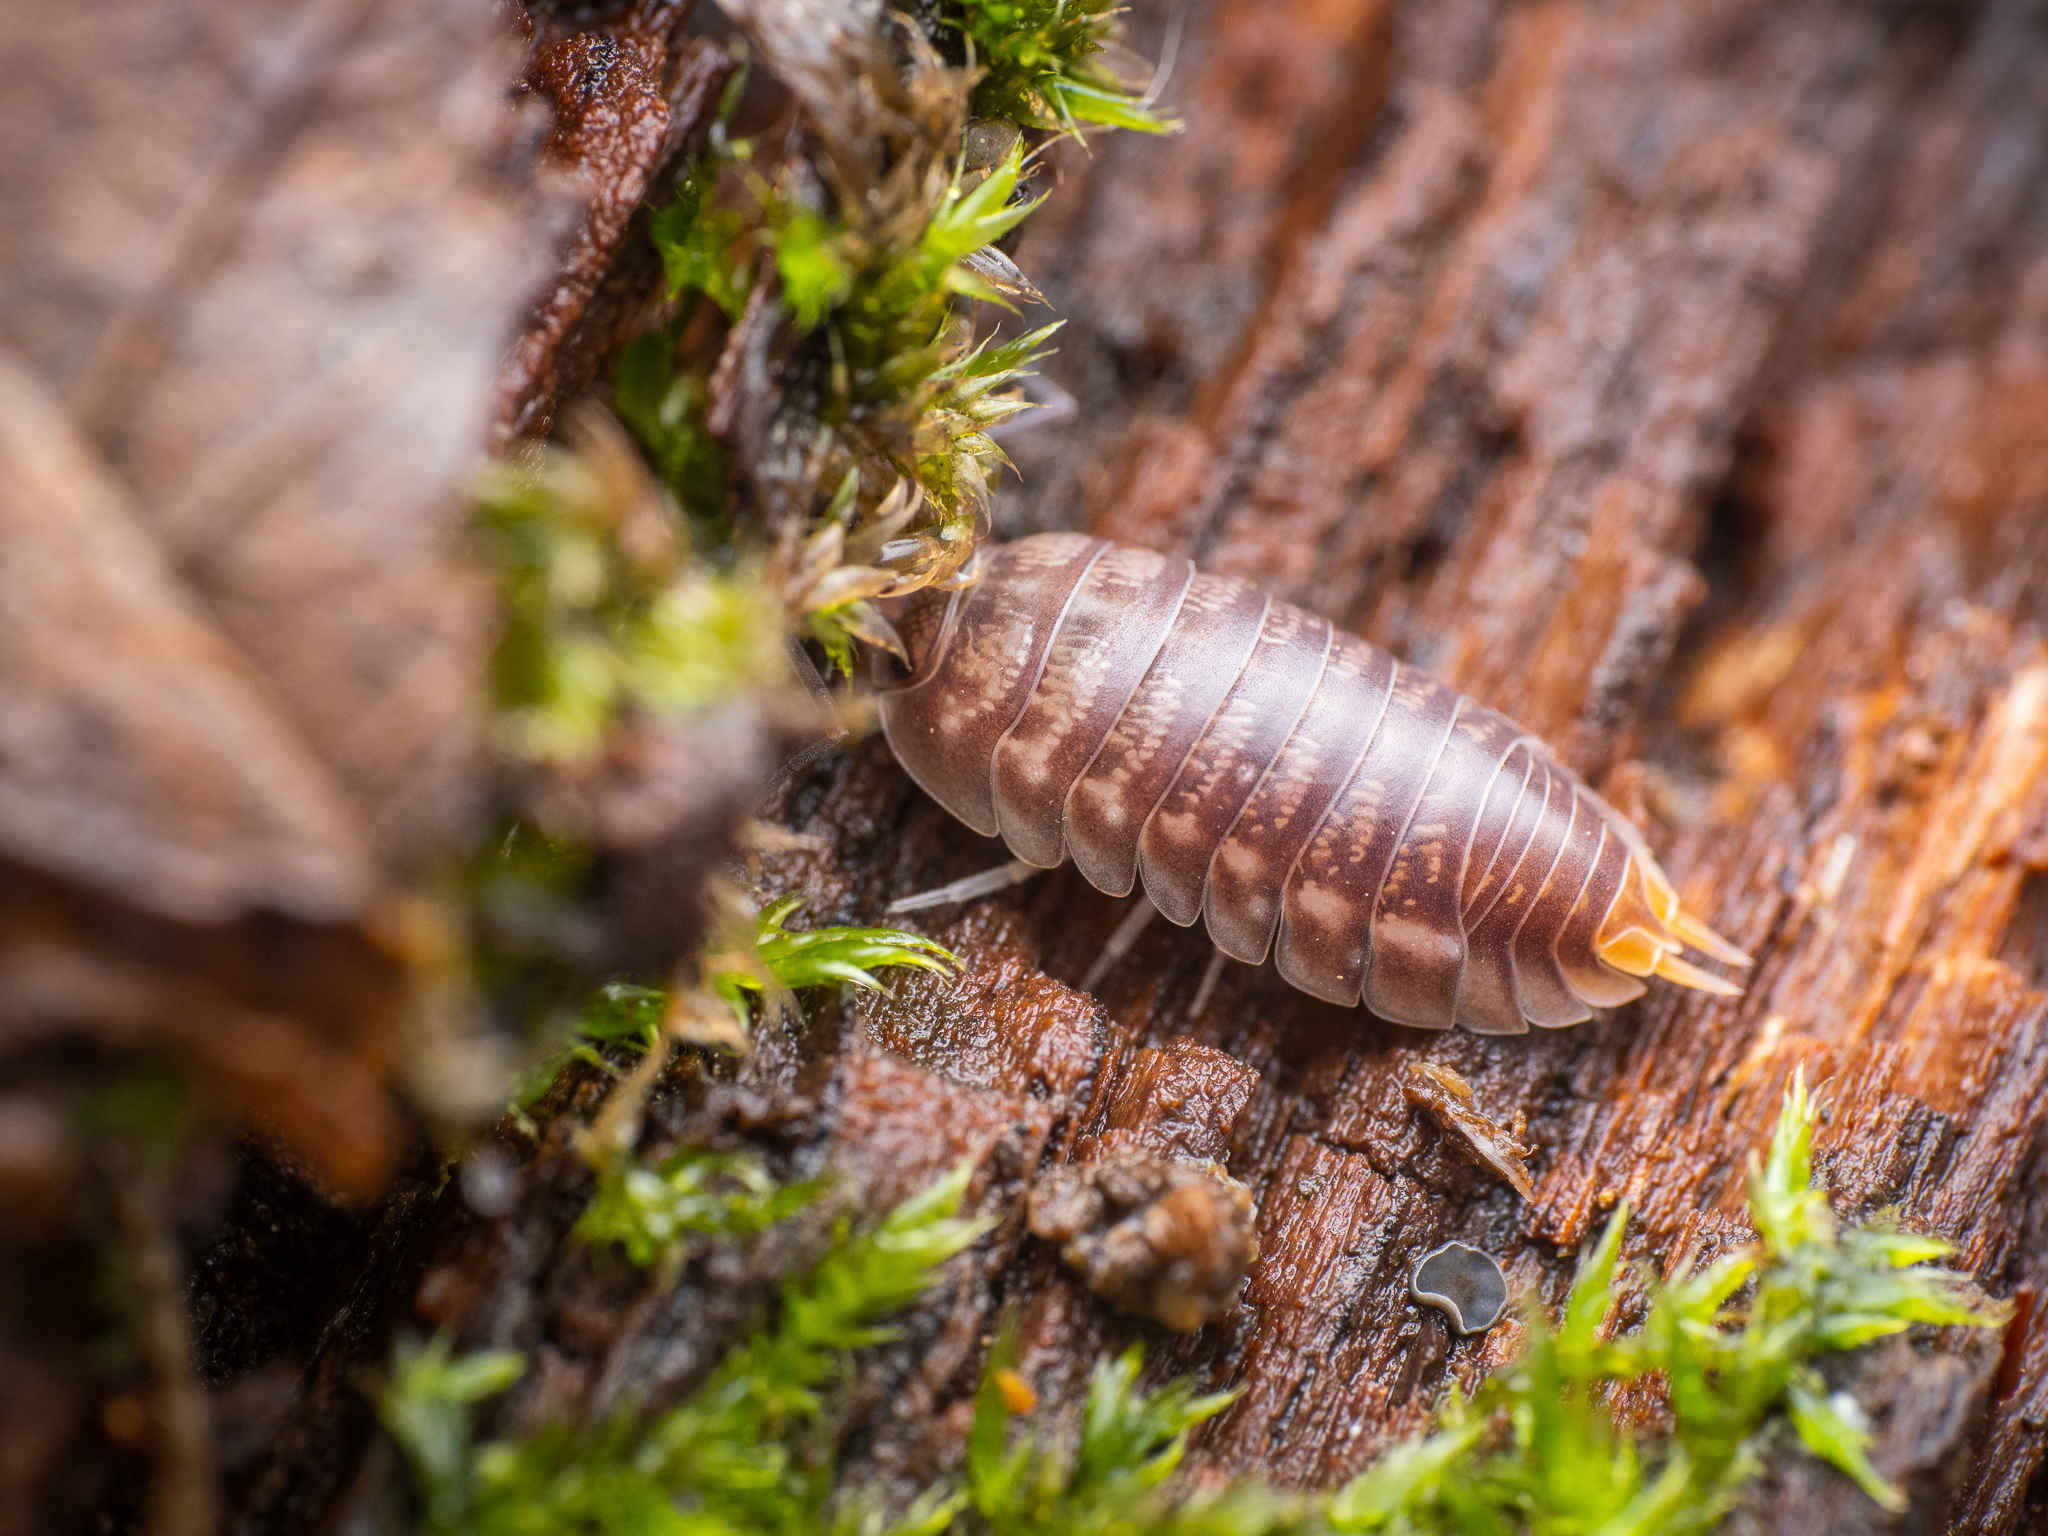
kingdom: Animalia
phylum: Arthropoda
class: Malacostraca
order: Isopoda
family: Cylisticidae
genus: Cylisticus
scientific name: Cylisticus convexus
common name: Curly woodlouse
